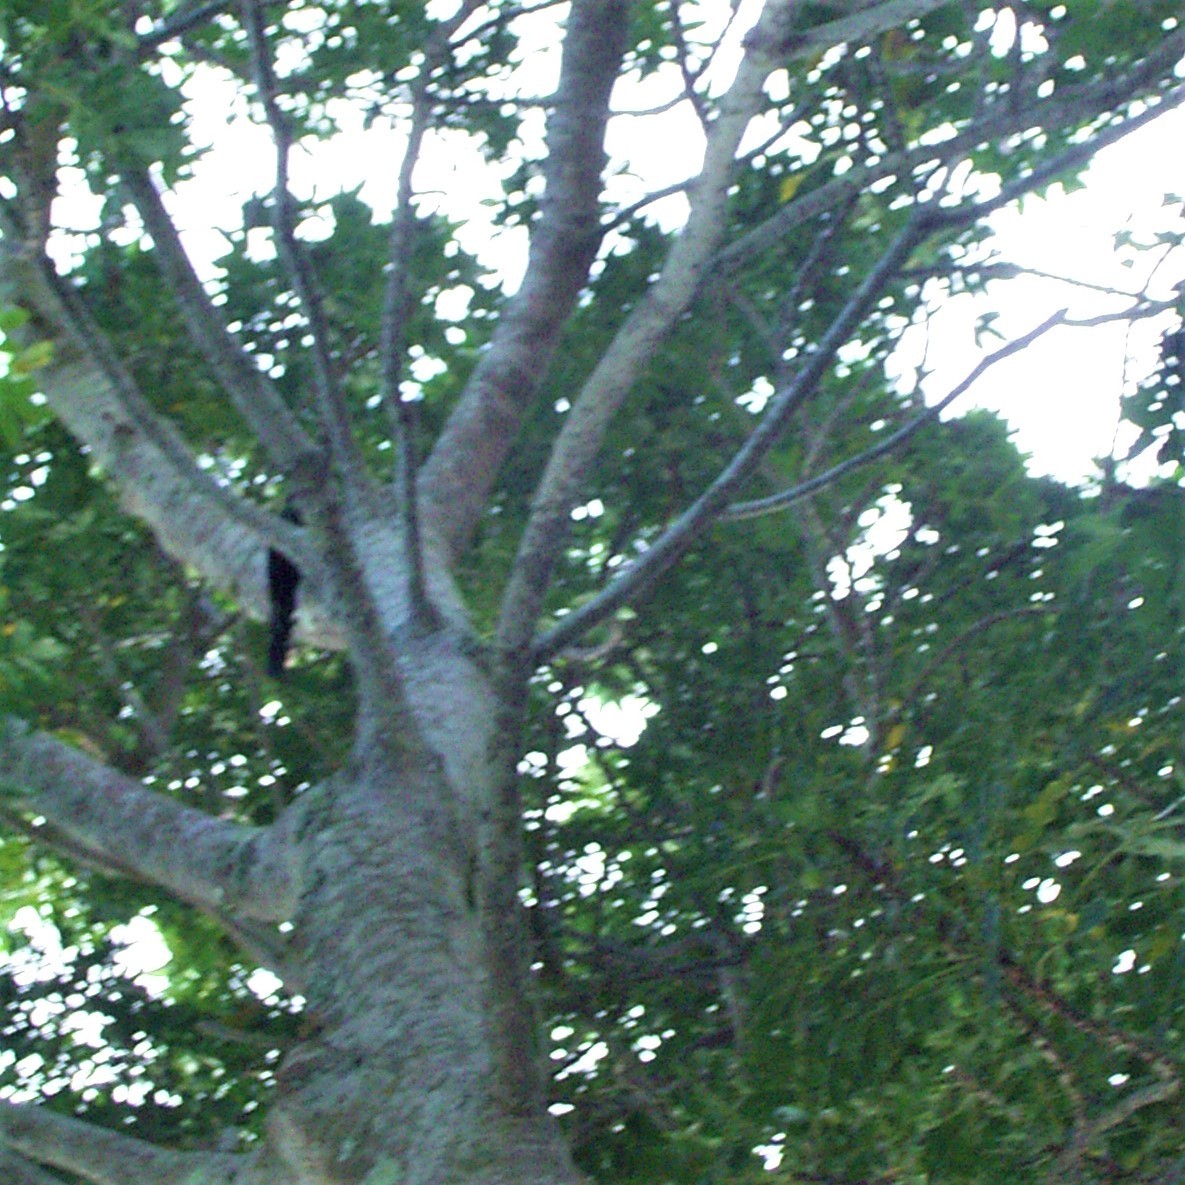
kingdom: Animalia
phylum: Chordata
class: Aves
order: Bucerotiformes
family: Phoeniculidae
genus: Phoeniculus
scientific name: Phoeniculus purpureus
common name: Green woodhoopoe
